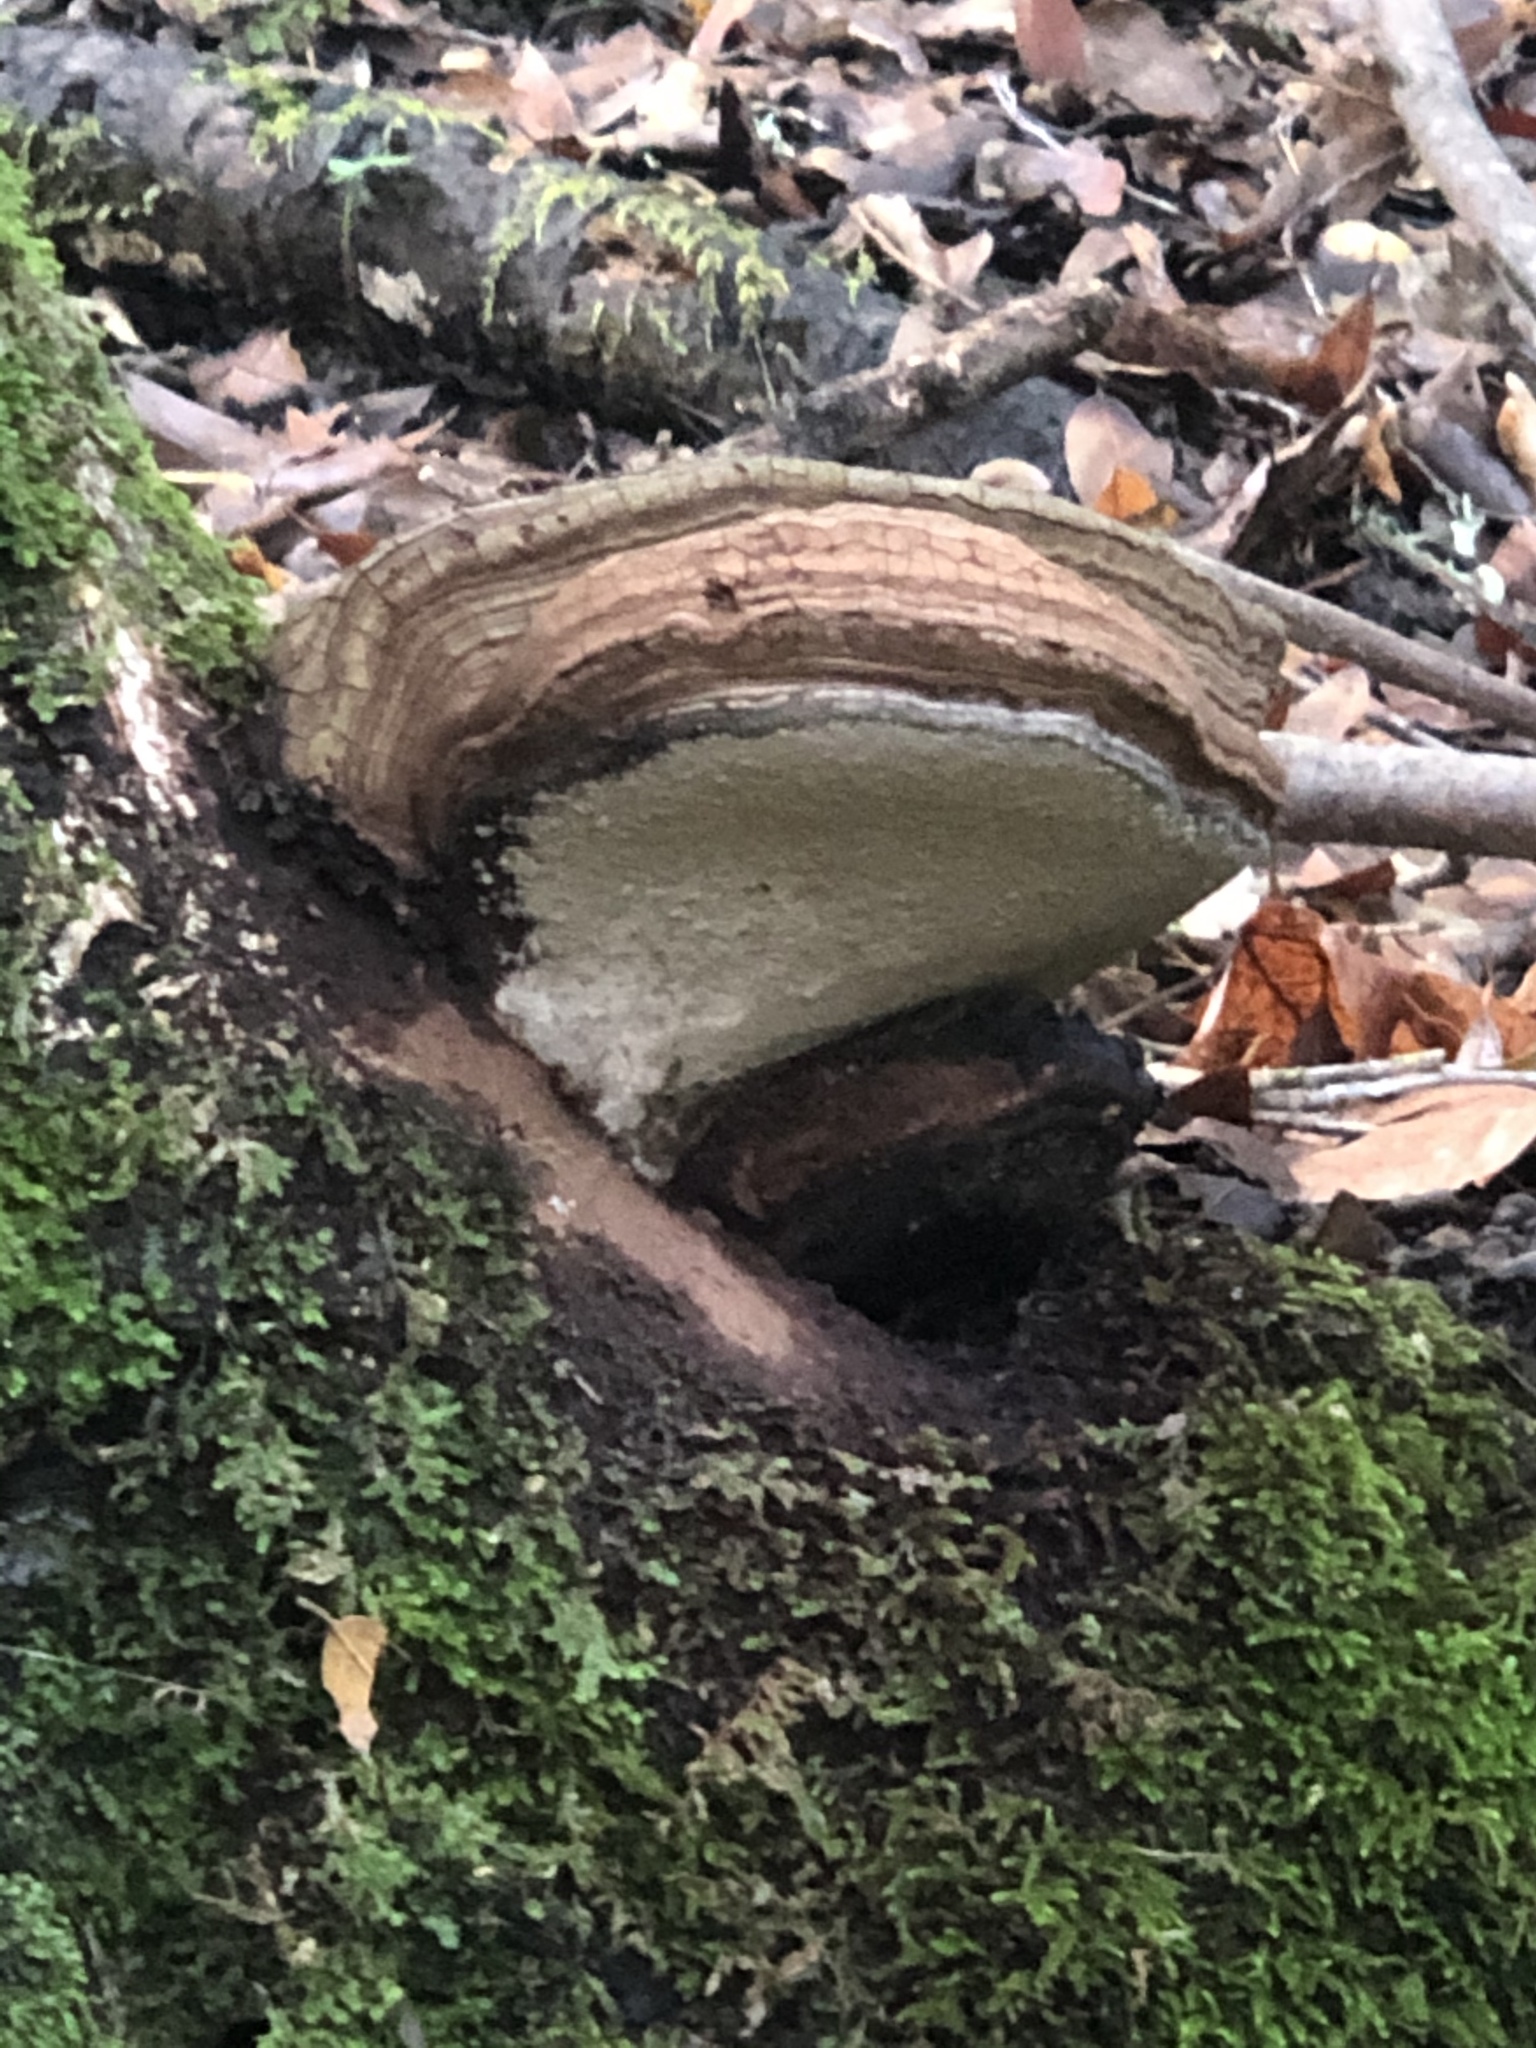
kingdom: Fungi
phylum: Basidiomycota
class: Agaricomycetes
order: Polyporales
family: Polyporaceae
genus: Ganoderma
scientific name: Ganoderma brownii
